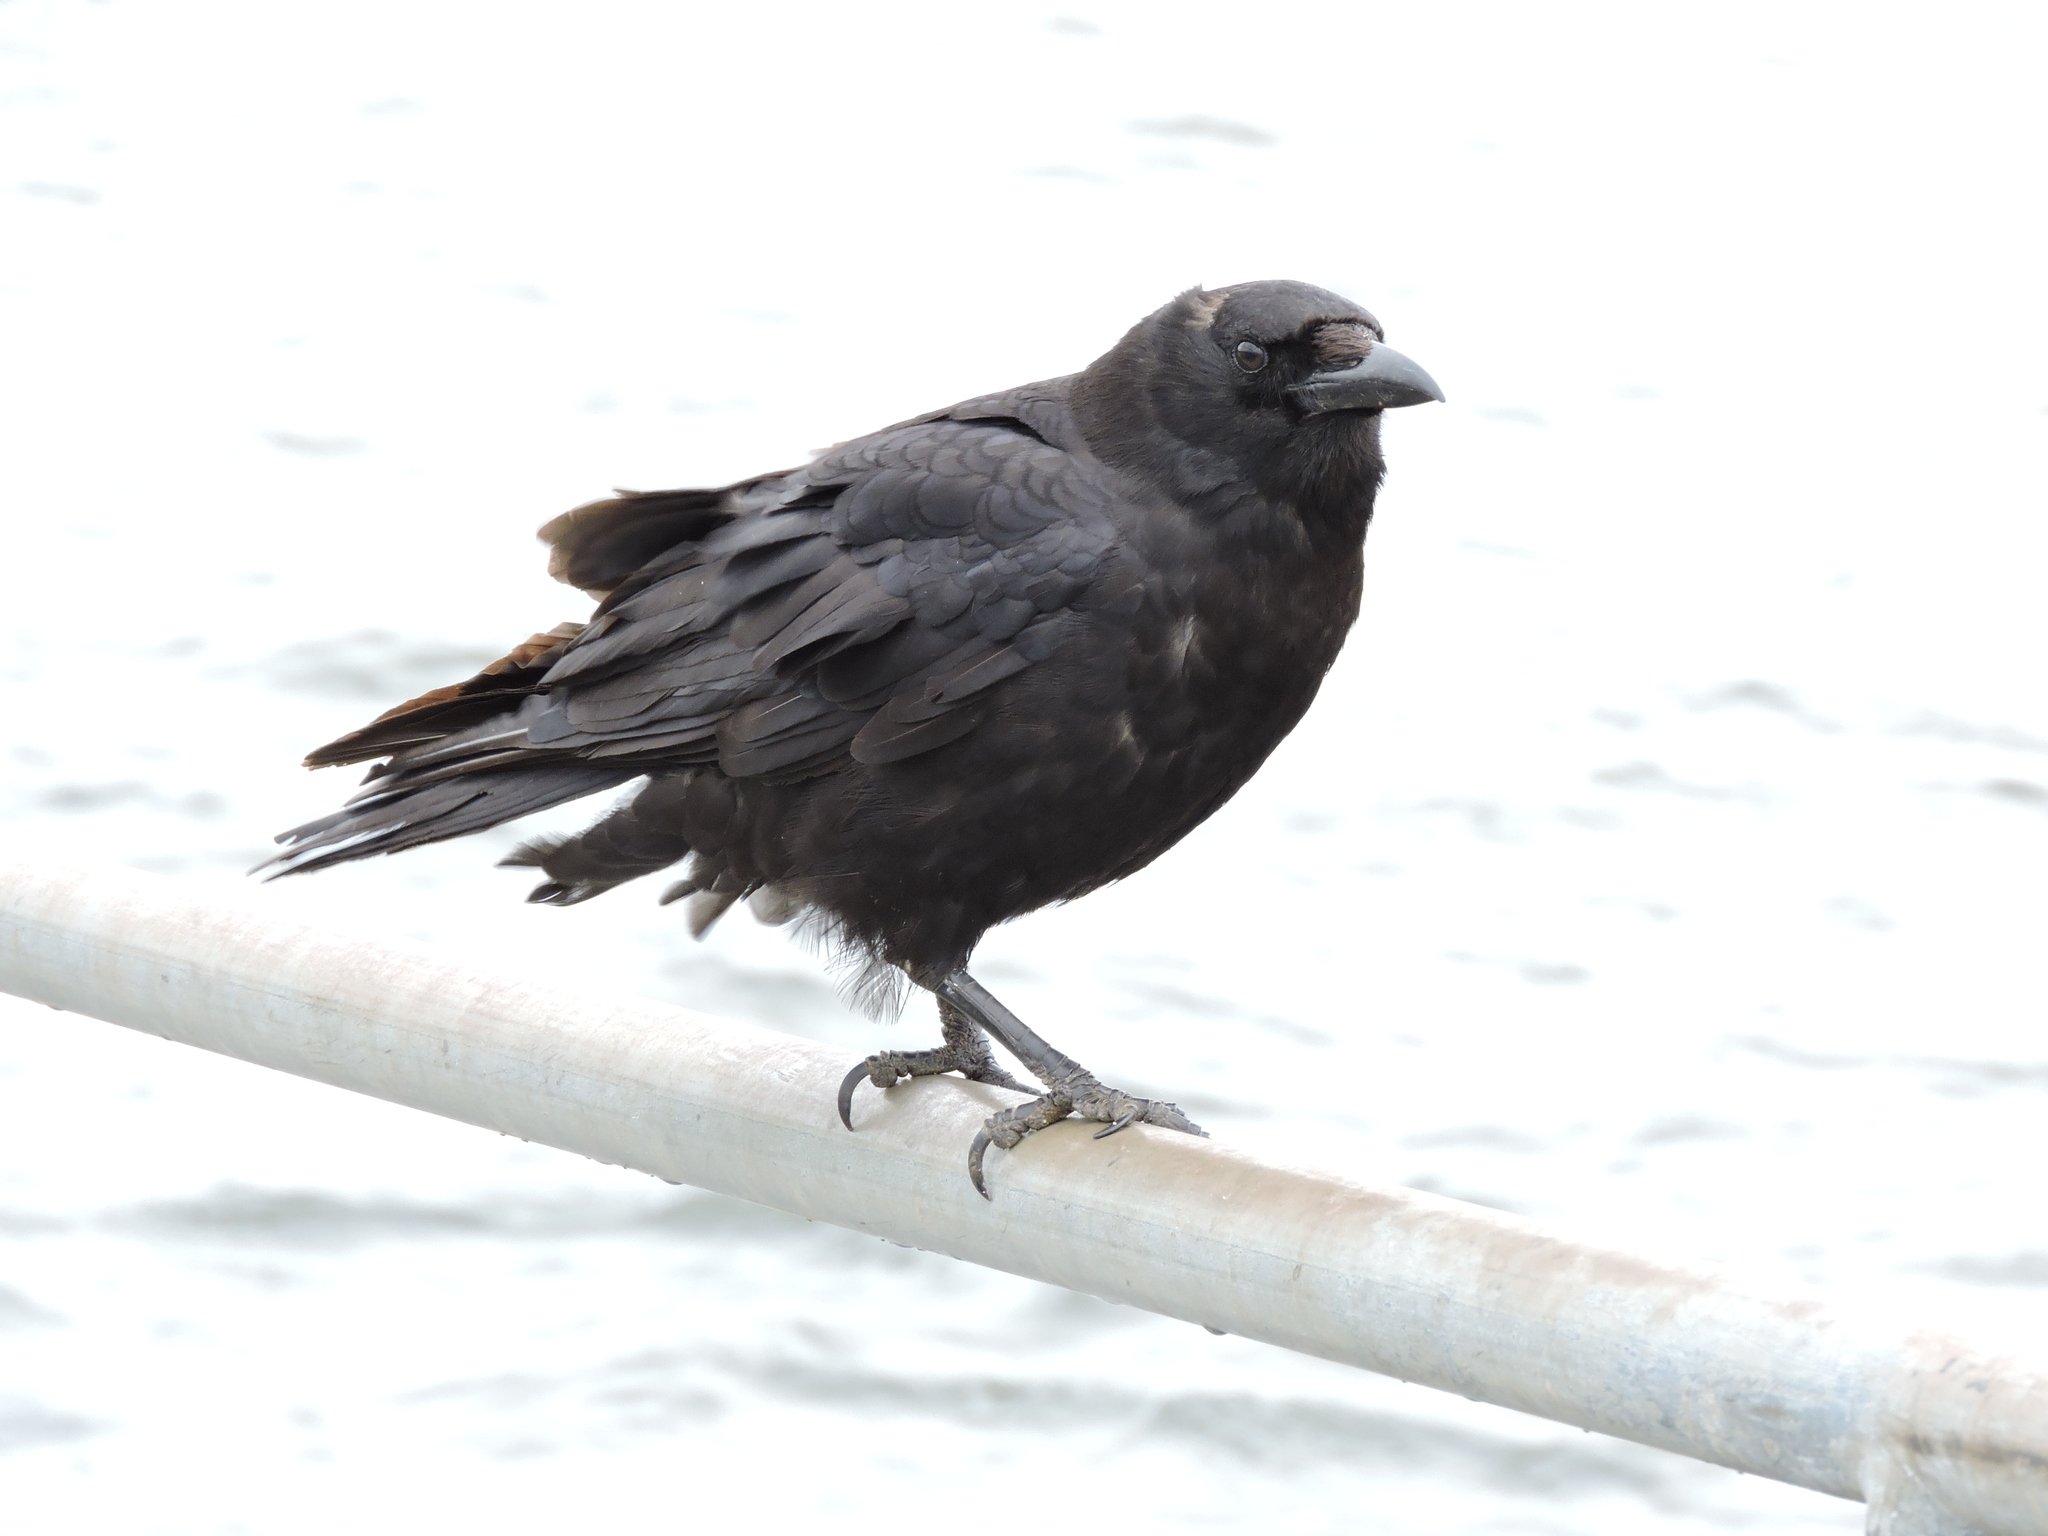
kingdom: Animalia
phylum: Chordata
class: Aves
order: Passeriformes
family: Corvidae
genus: Corvus
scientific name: Corvus brachyrhynchos
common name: American crow
